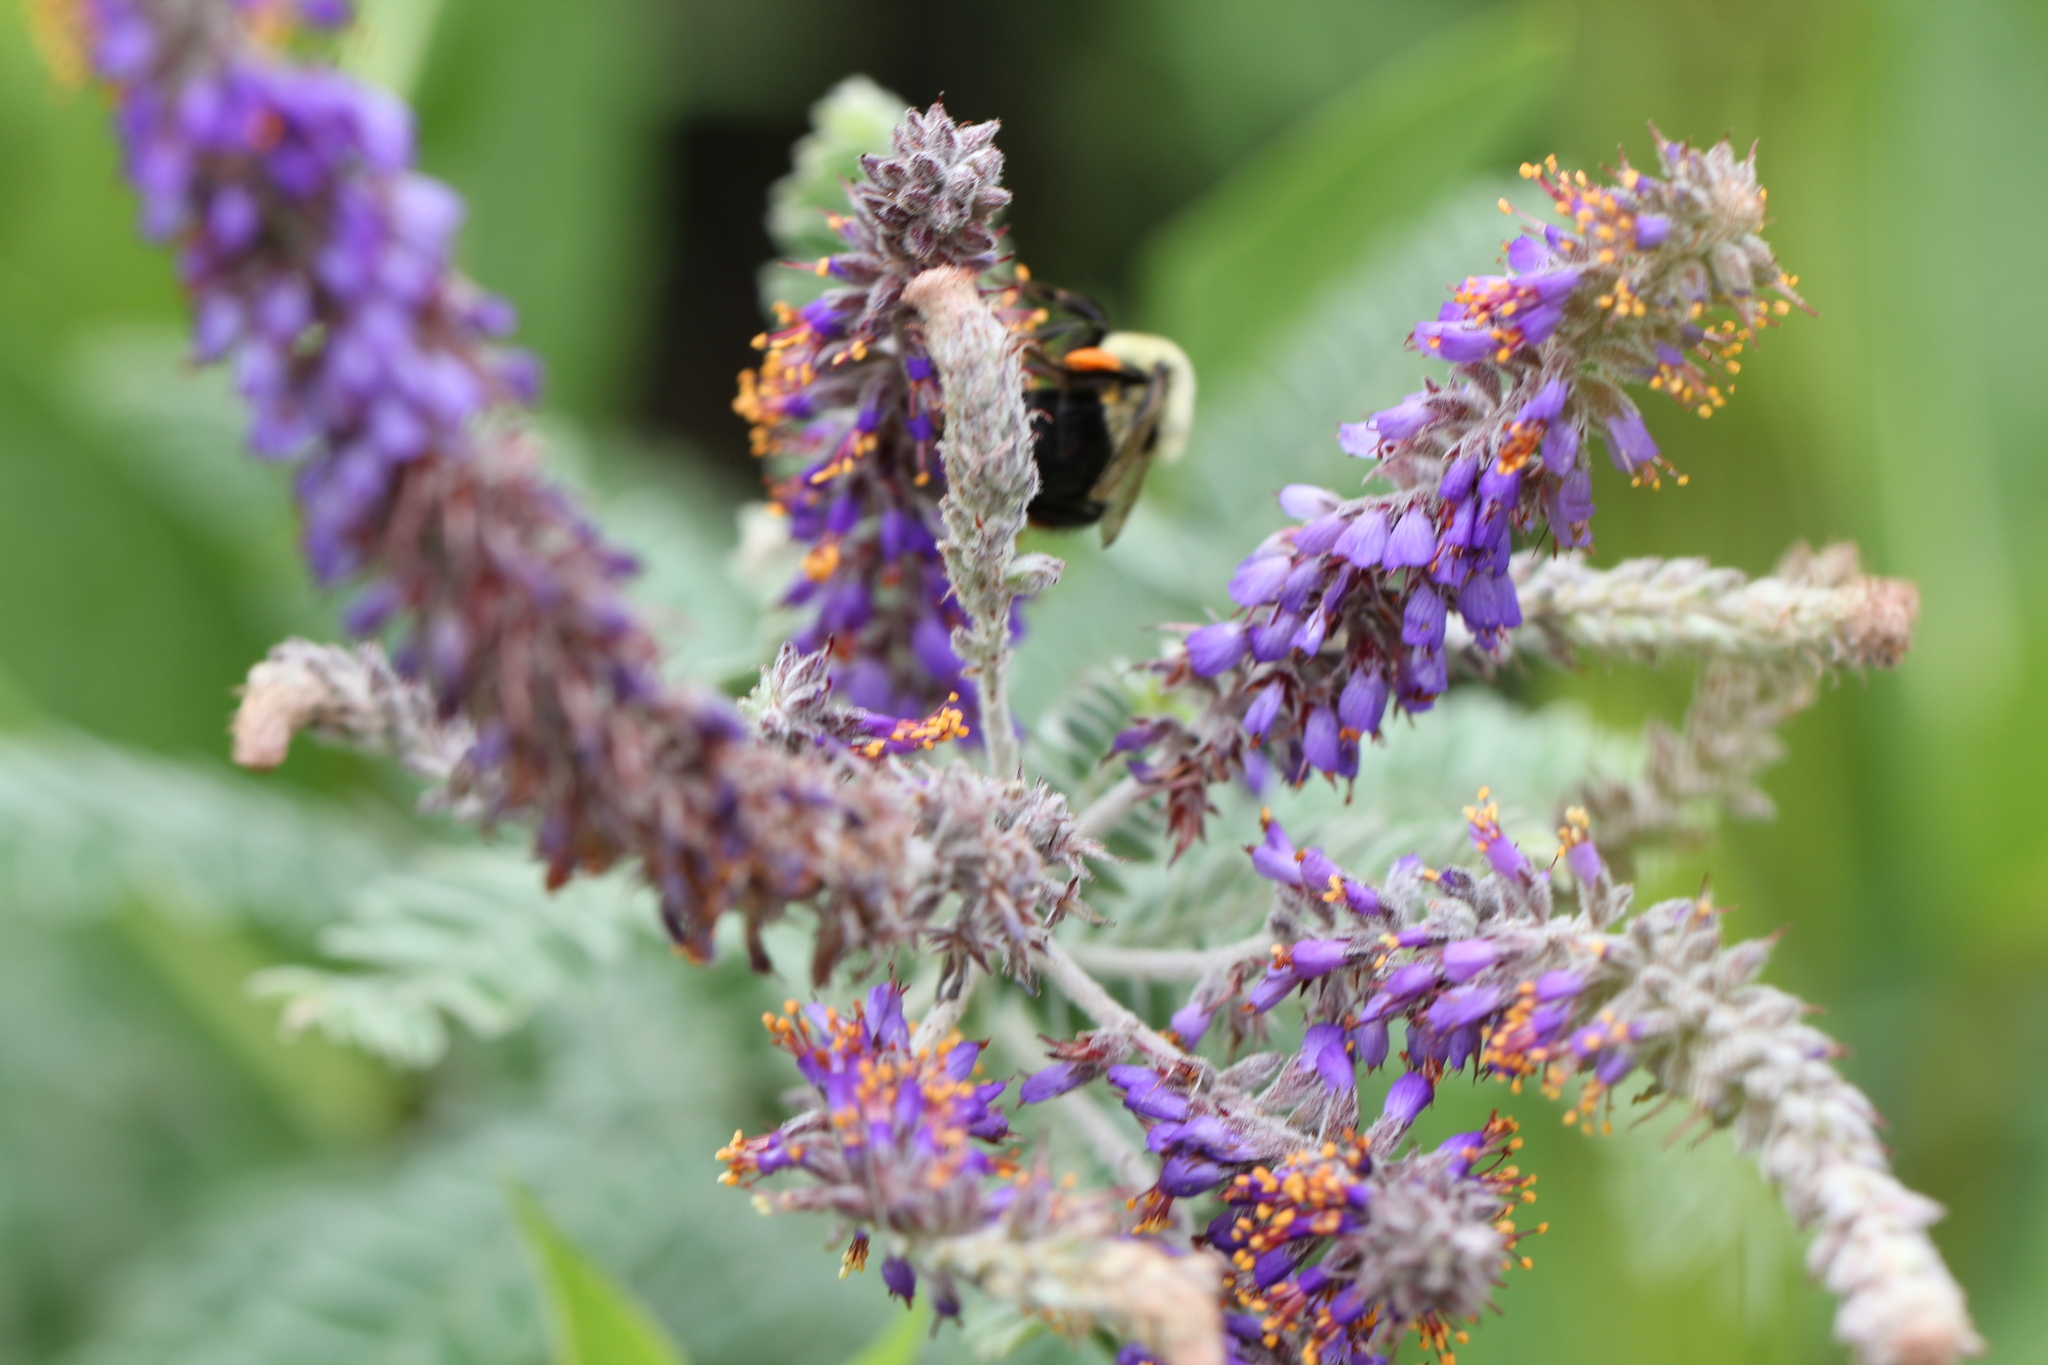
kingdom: Animalia
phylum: Arthropoda
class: Insecta
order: Hymenoptera
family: Apidae
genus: Bombus
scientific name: Bombus impatiens
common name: Common eastern bumble bee
